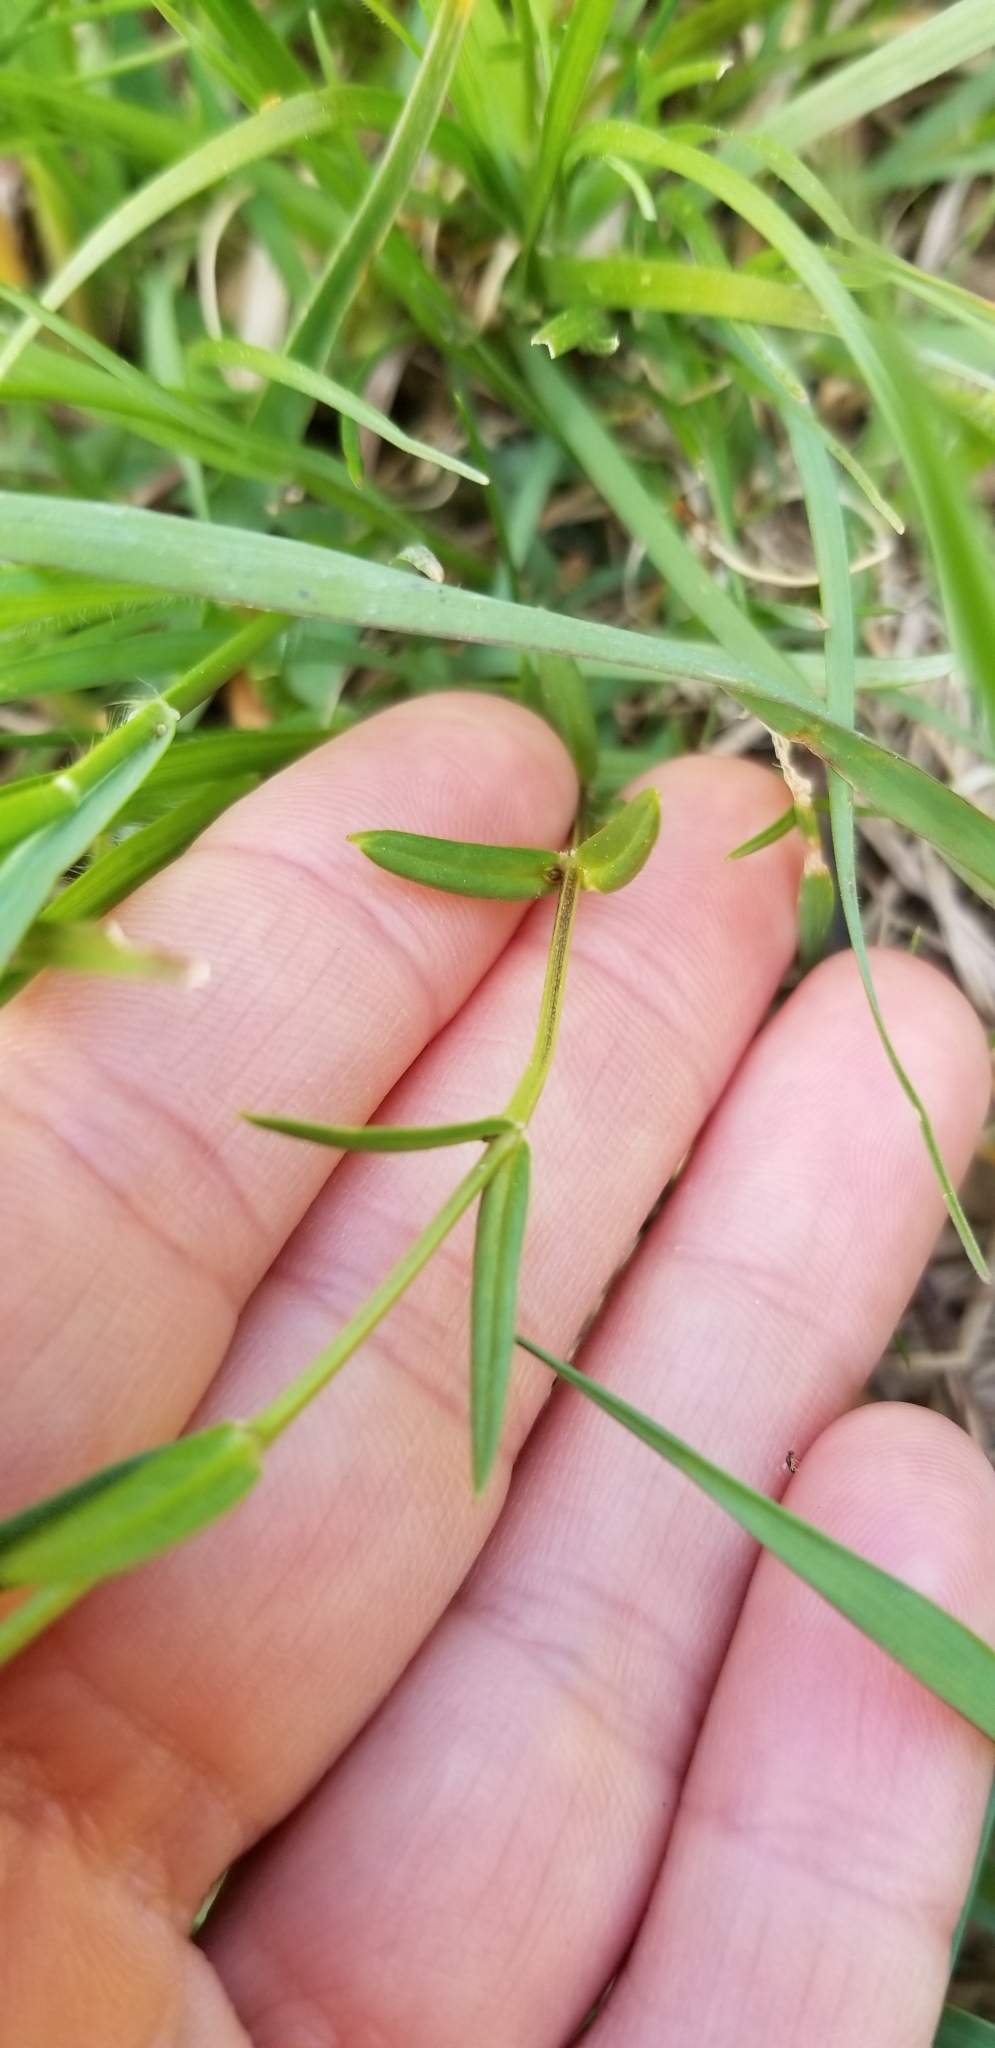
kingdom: Plantae
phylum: Tracheophyta
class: Magnoliopsida
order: Caryophyllales
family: Caryophyllaceae
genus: Stellaria
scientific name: Stellaria graminea
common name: Grass-like starwort
